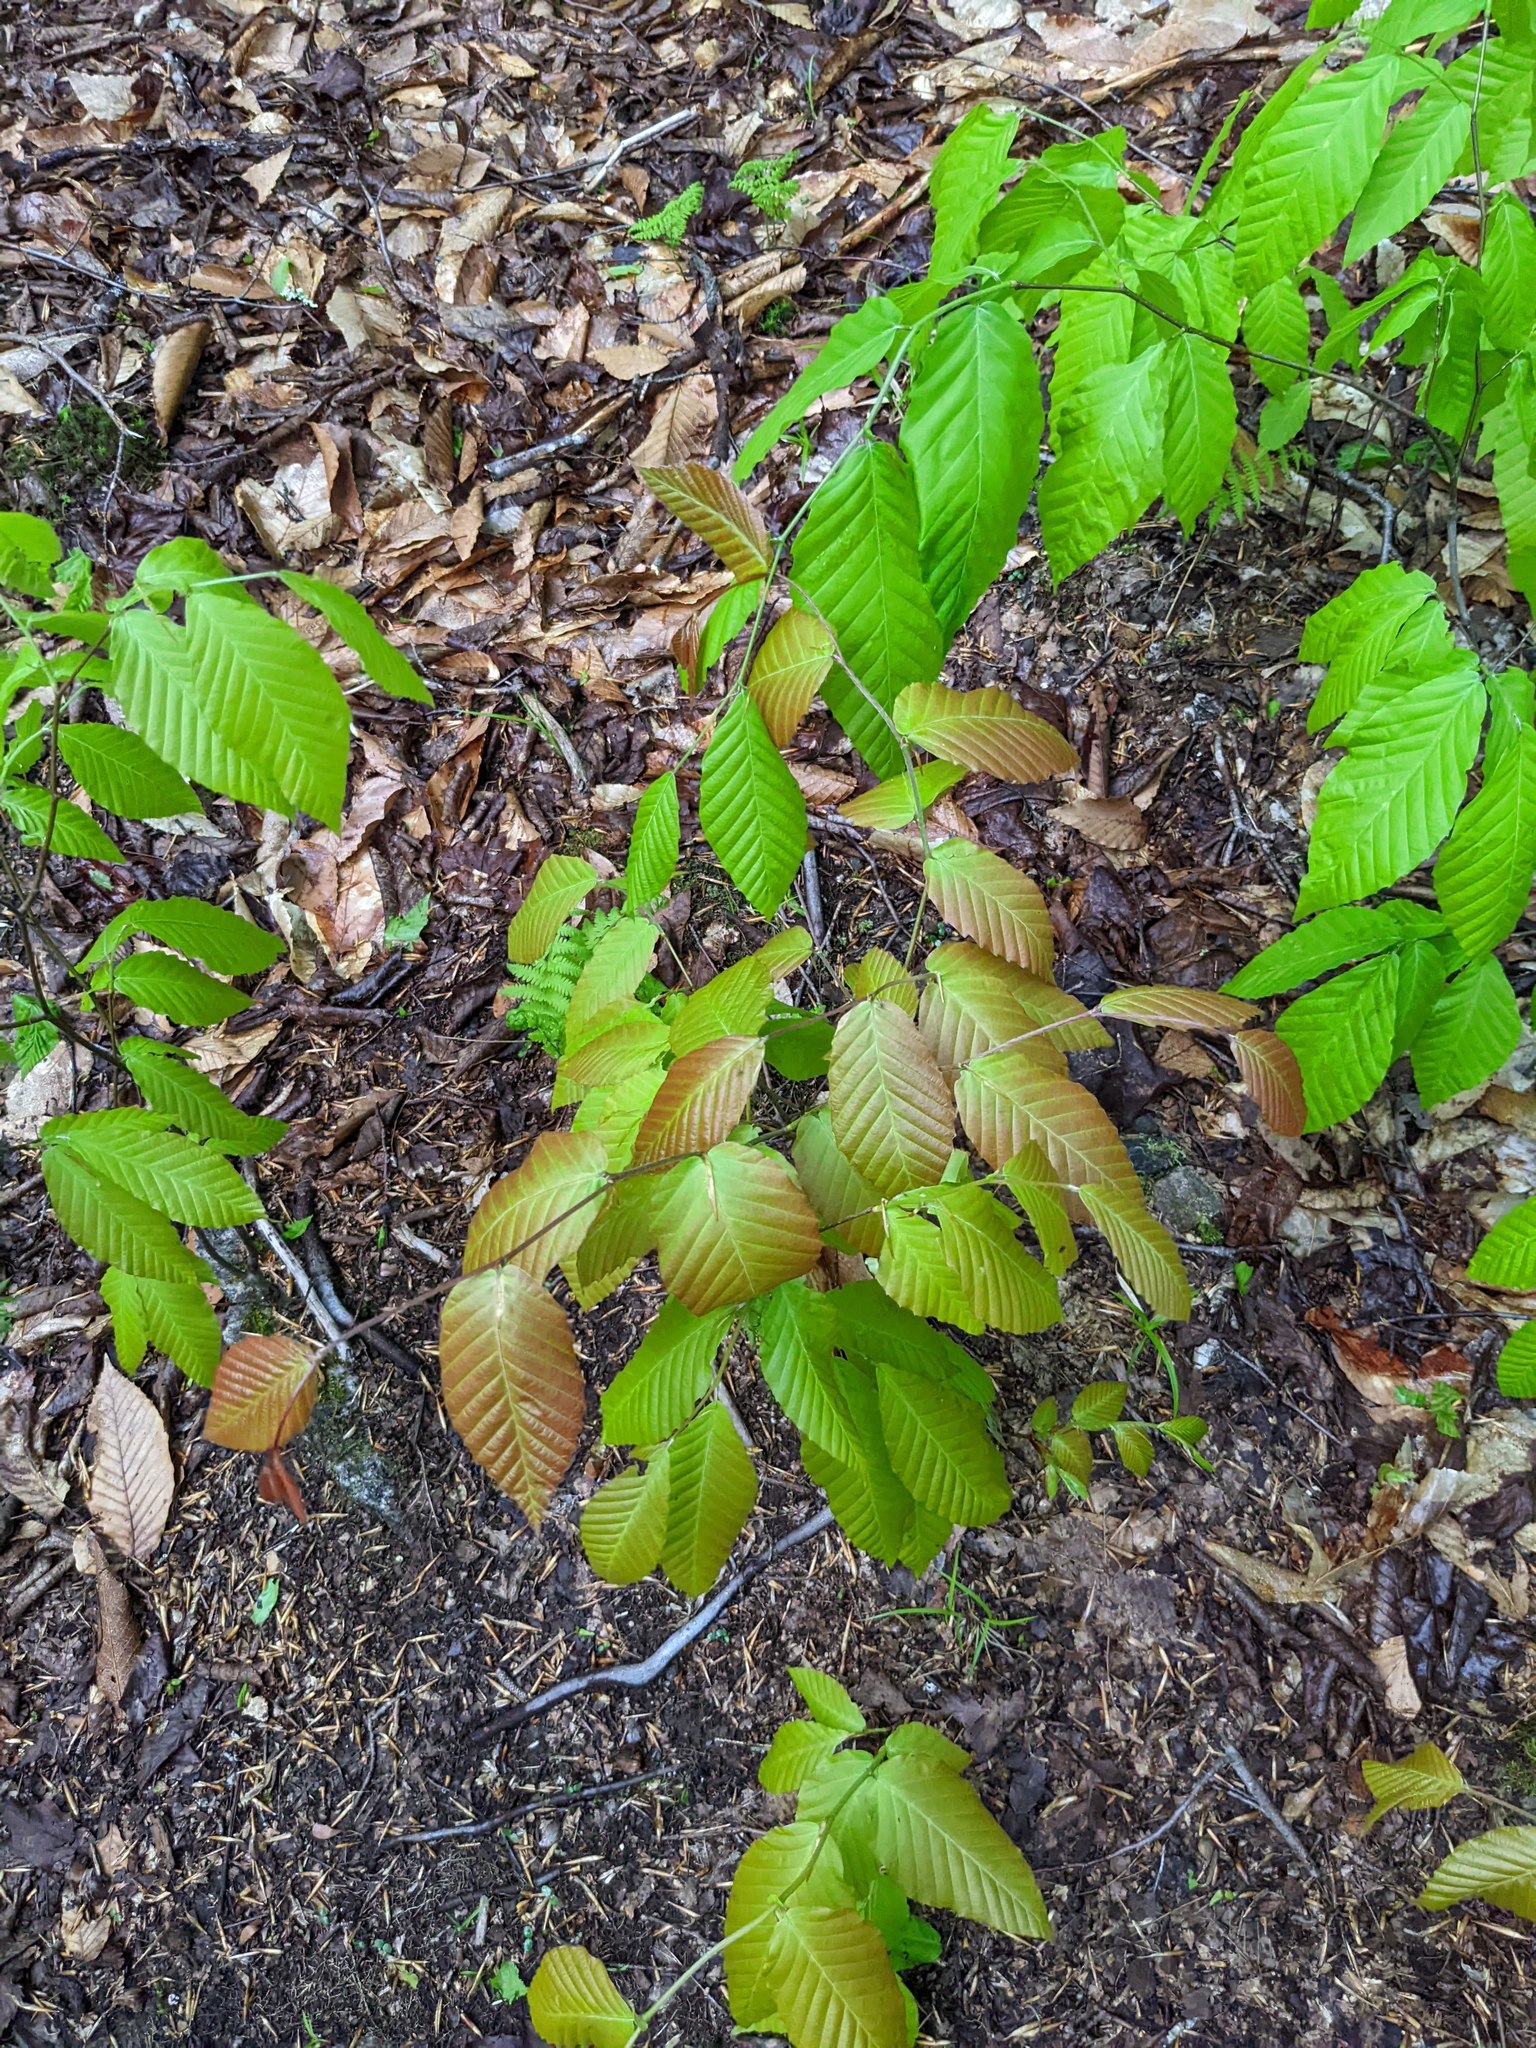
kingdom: Plantae
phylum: Tracheophyta
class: Magnoliopsida
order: Fagales
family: Fagaceae
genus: Fagus
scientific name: Fagus grandifolia
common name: American beech
